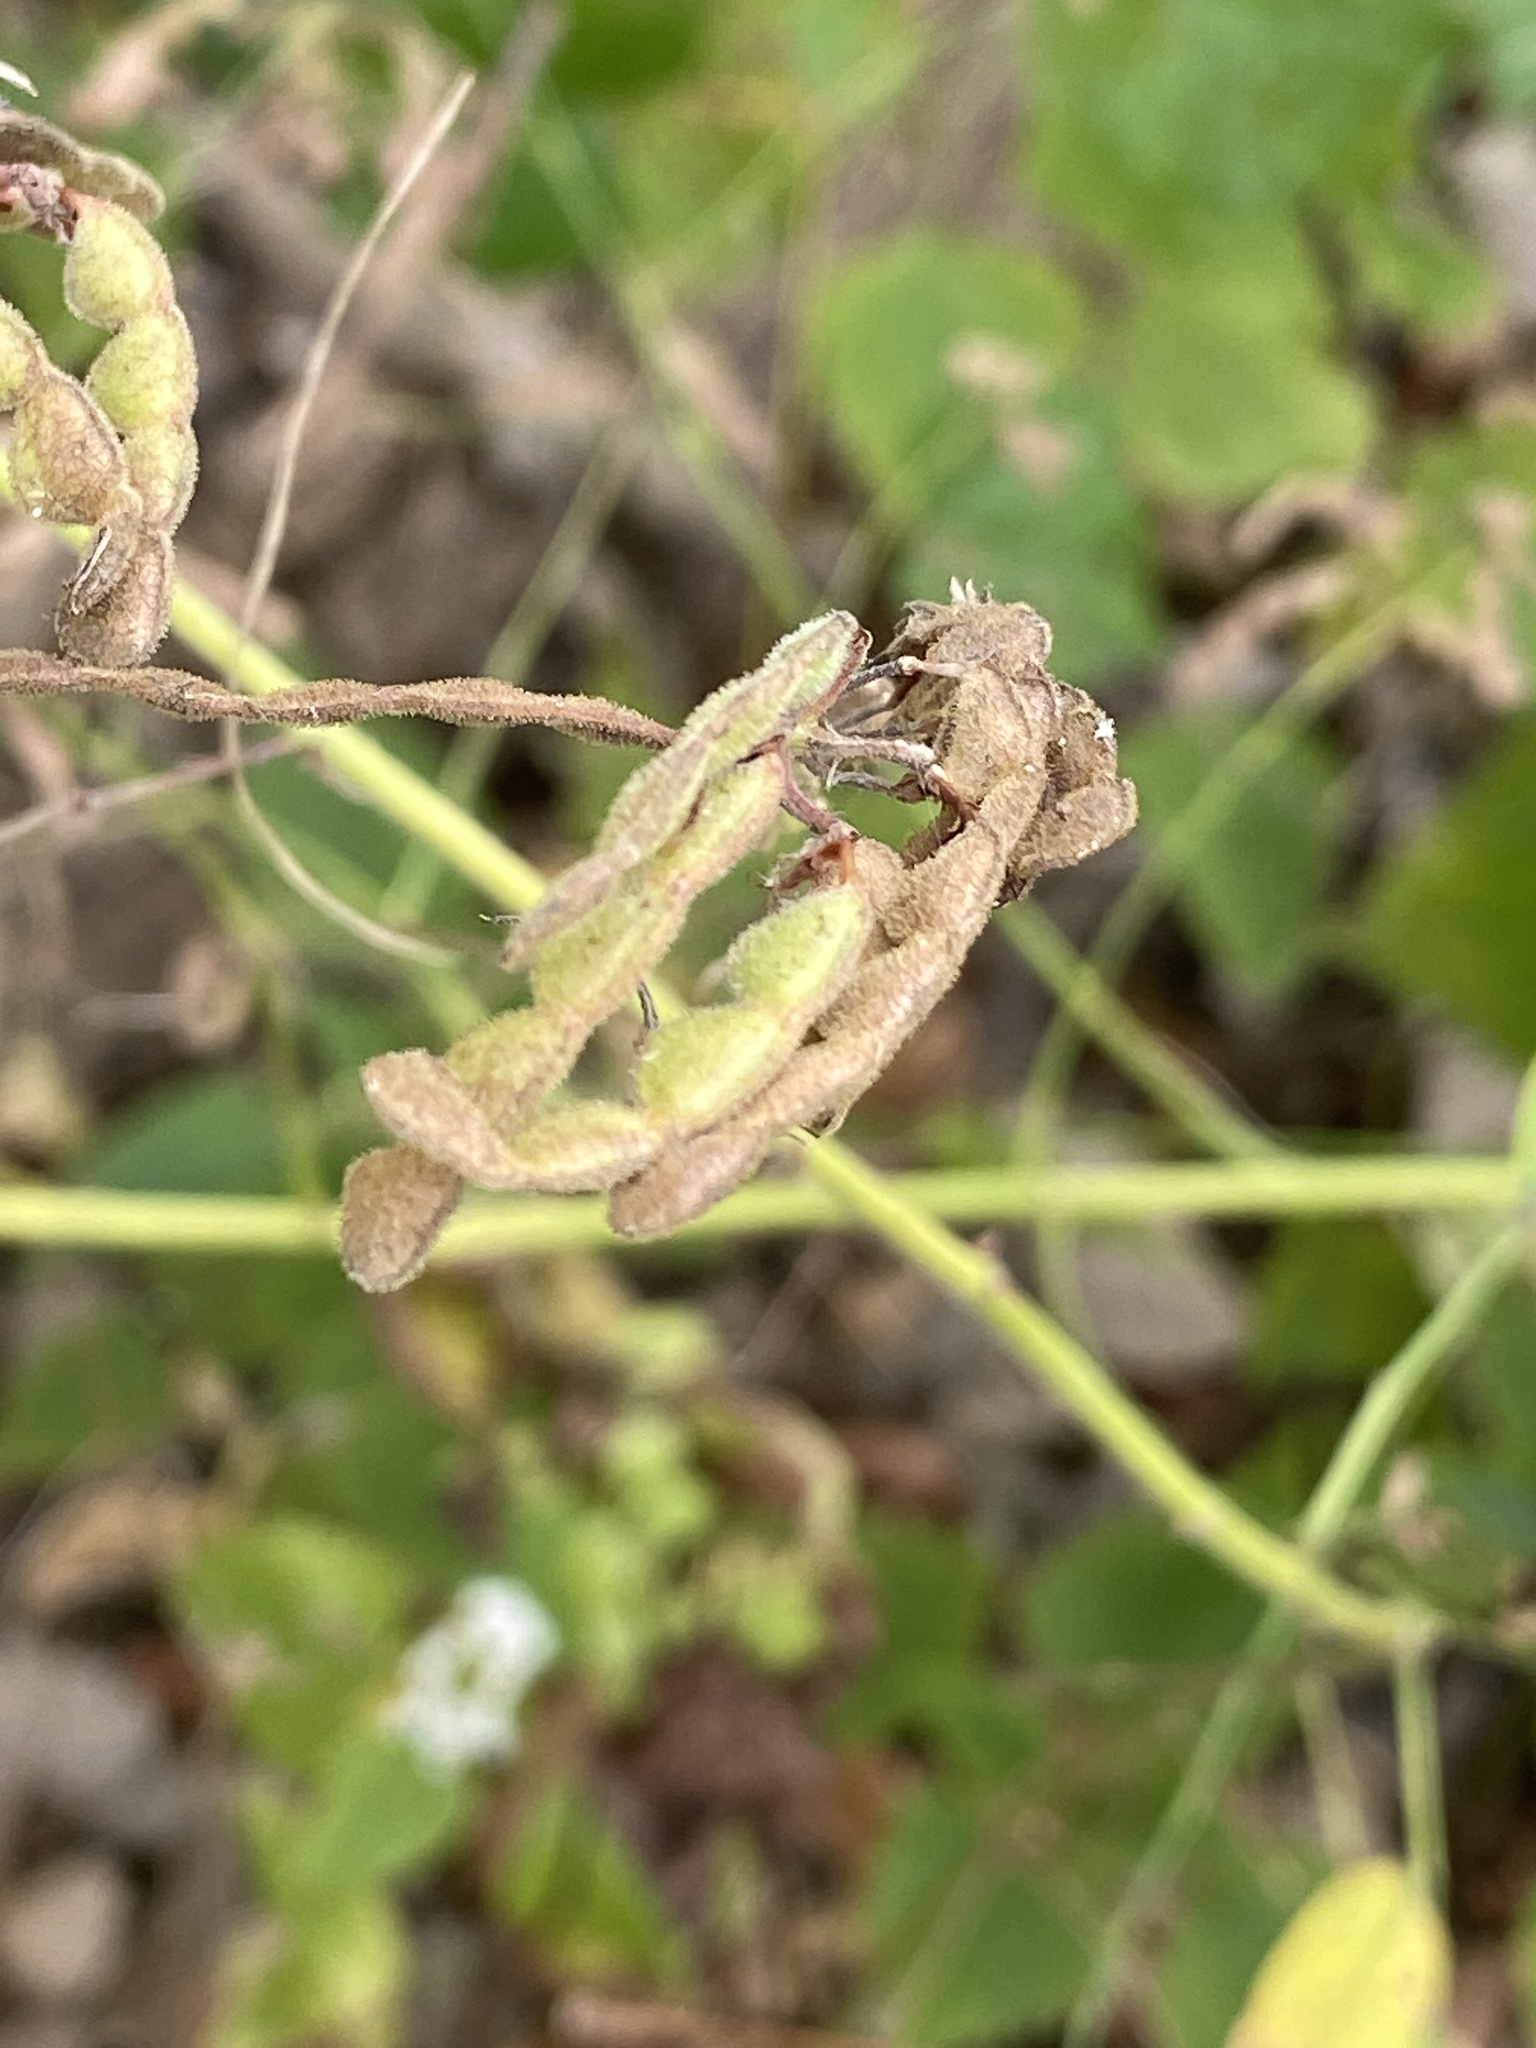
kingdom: Plantae
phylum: Tracheophyta
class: Magnoliopsida
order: Fabales
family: Fabaceae
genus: Desmodium
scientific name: Desmodium canadense
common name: Canada tick-trefoil
